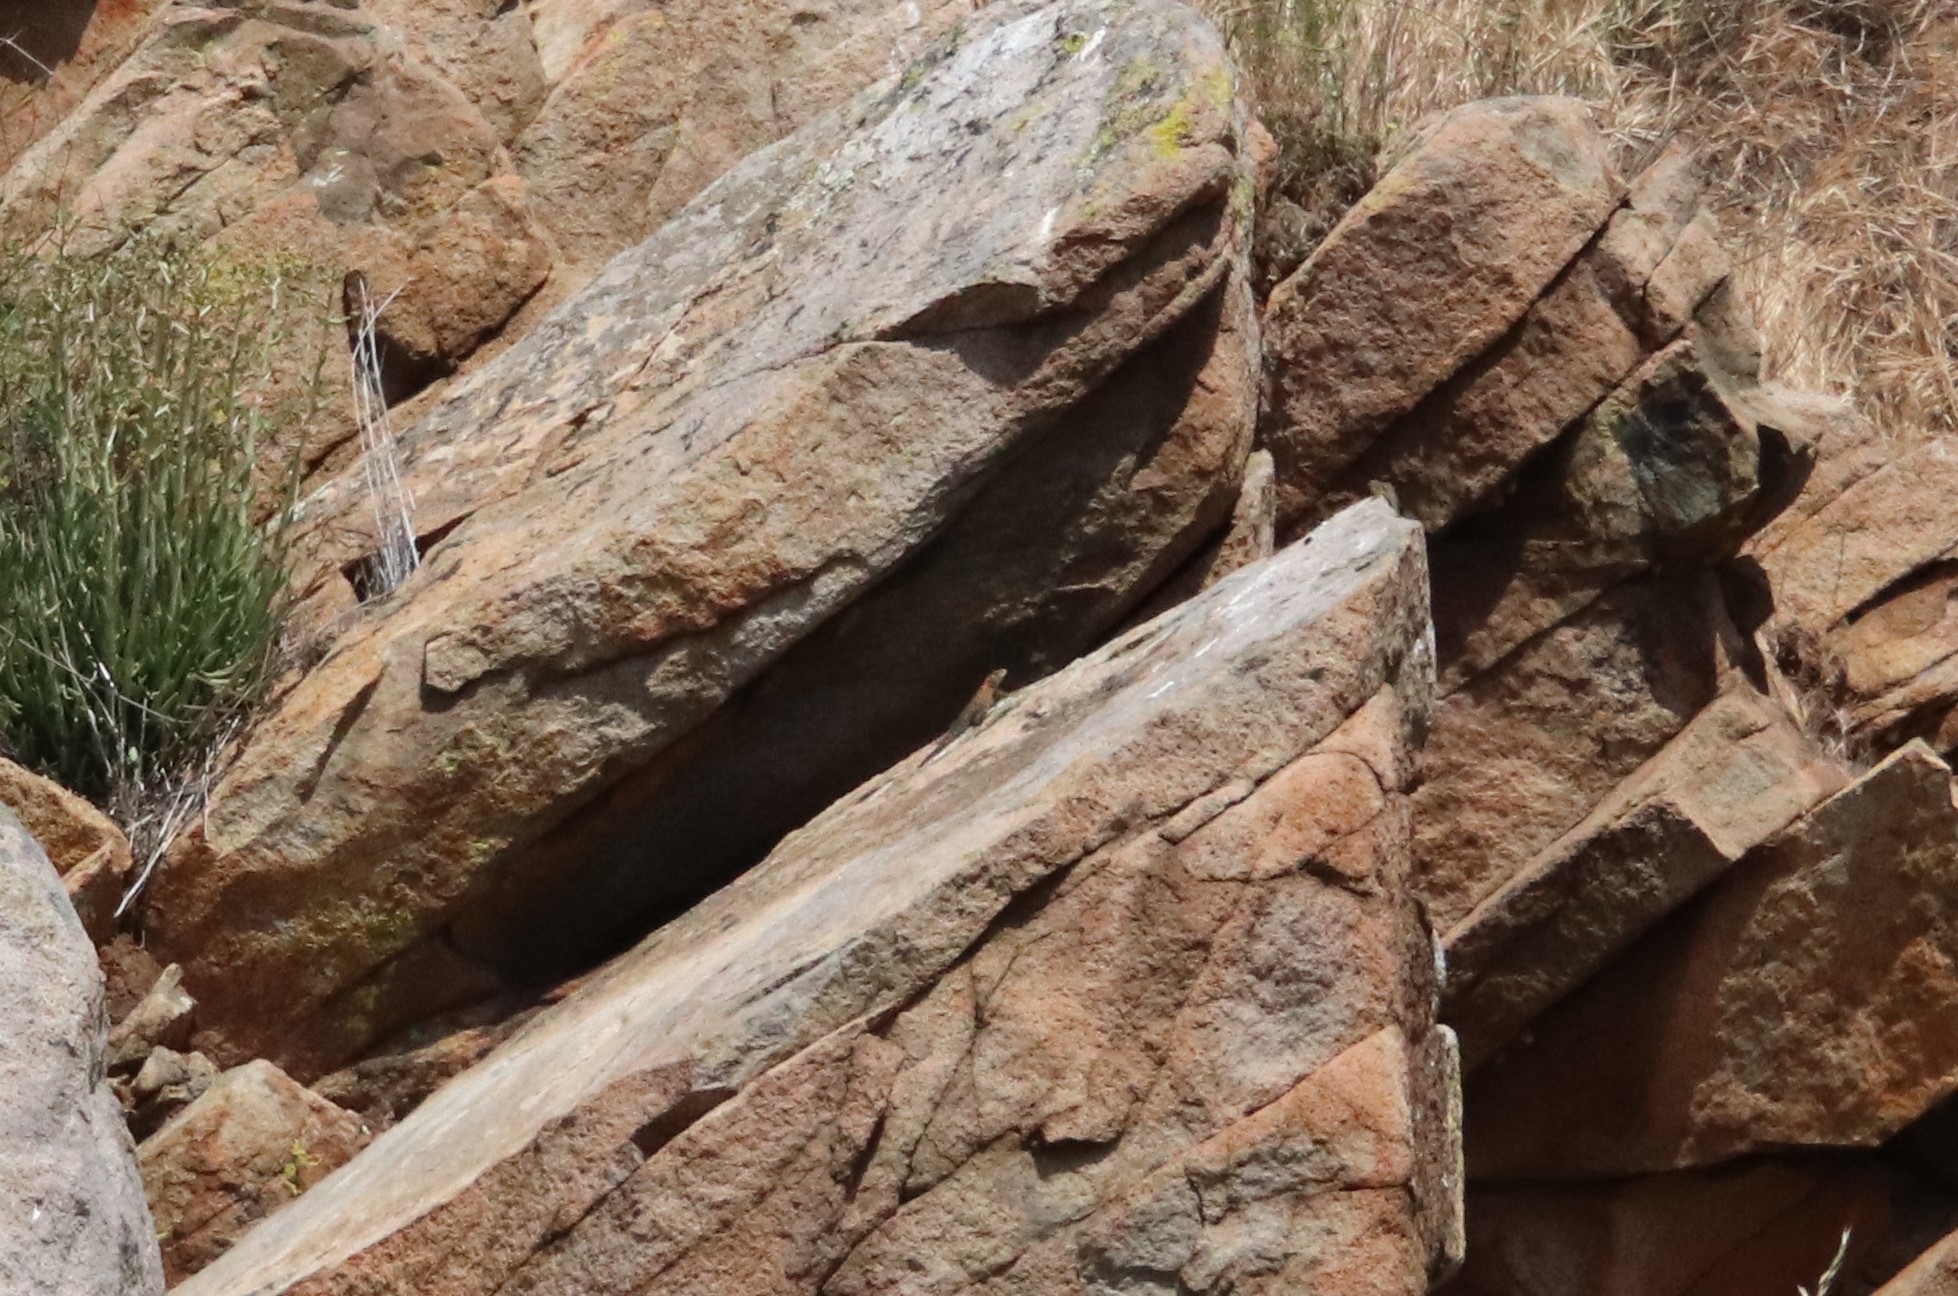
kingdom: Animalia
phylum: Chordata
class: Squamata
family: Phrynosomatidae
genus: Sceloporus
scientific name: Sceloporus orcutti
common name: Granite spiny lizard
